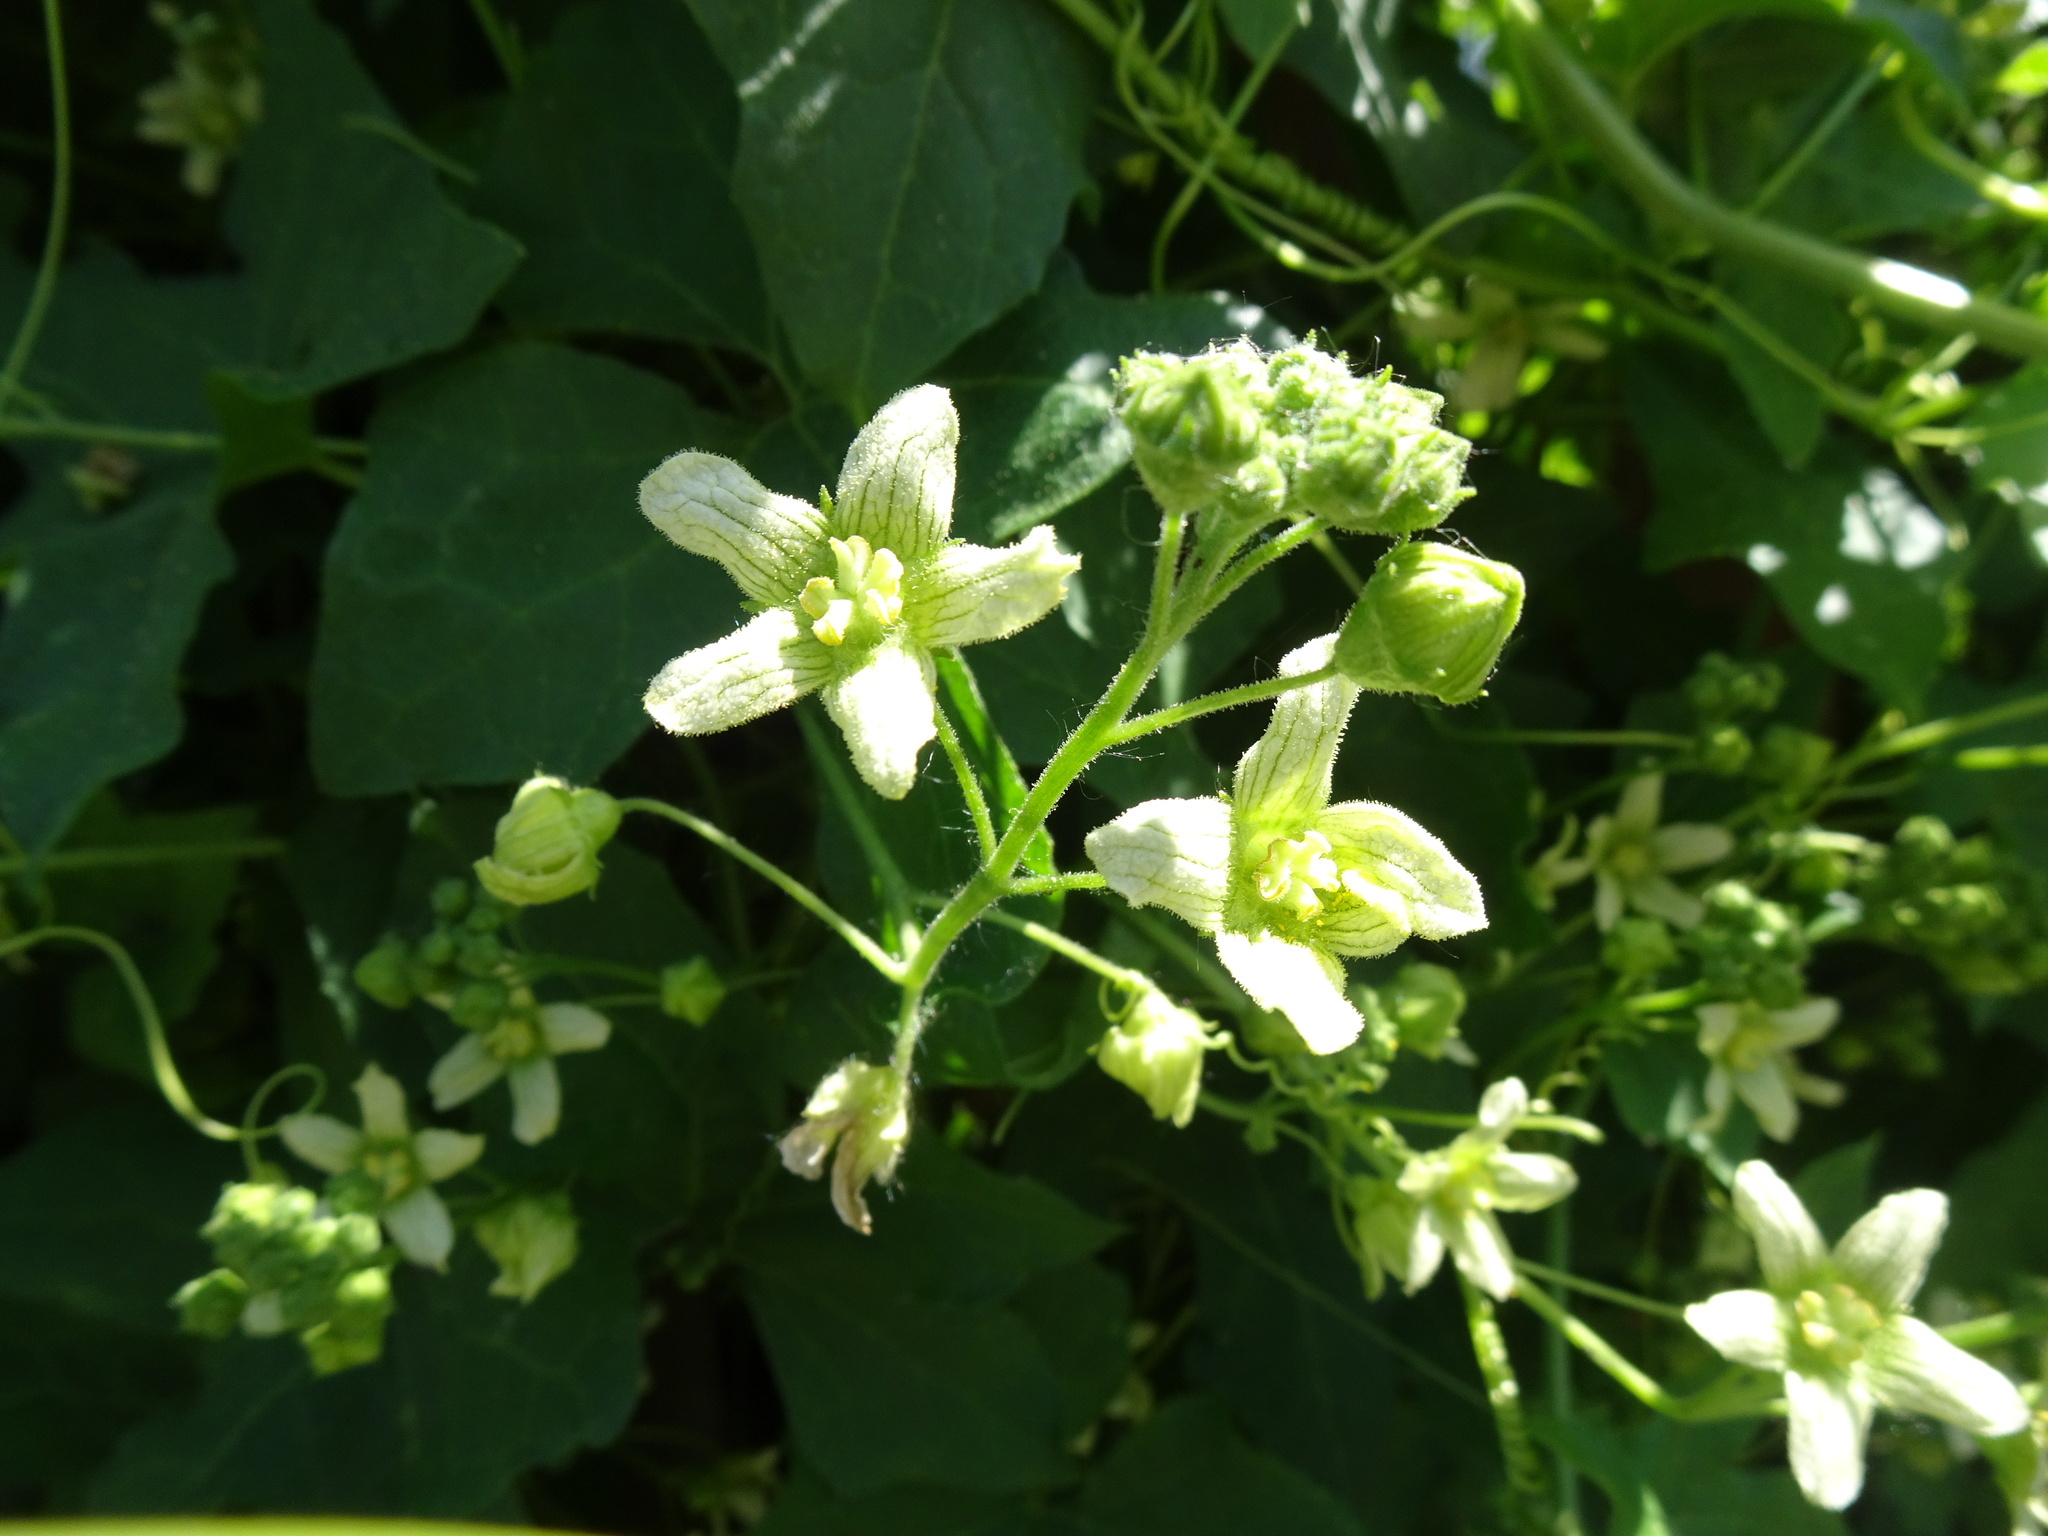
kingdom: Plantae
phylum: Tracheophyta
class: Magnoliopsida
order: Cucurbitales
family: Cucurbitaceae
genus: Bryonia
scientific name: Bryonia dioica
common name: White bryony
